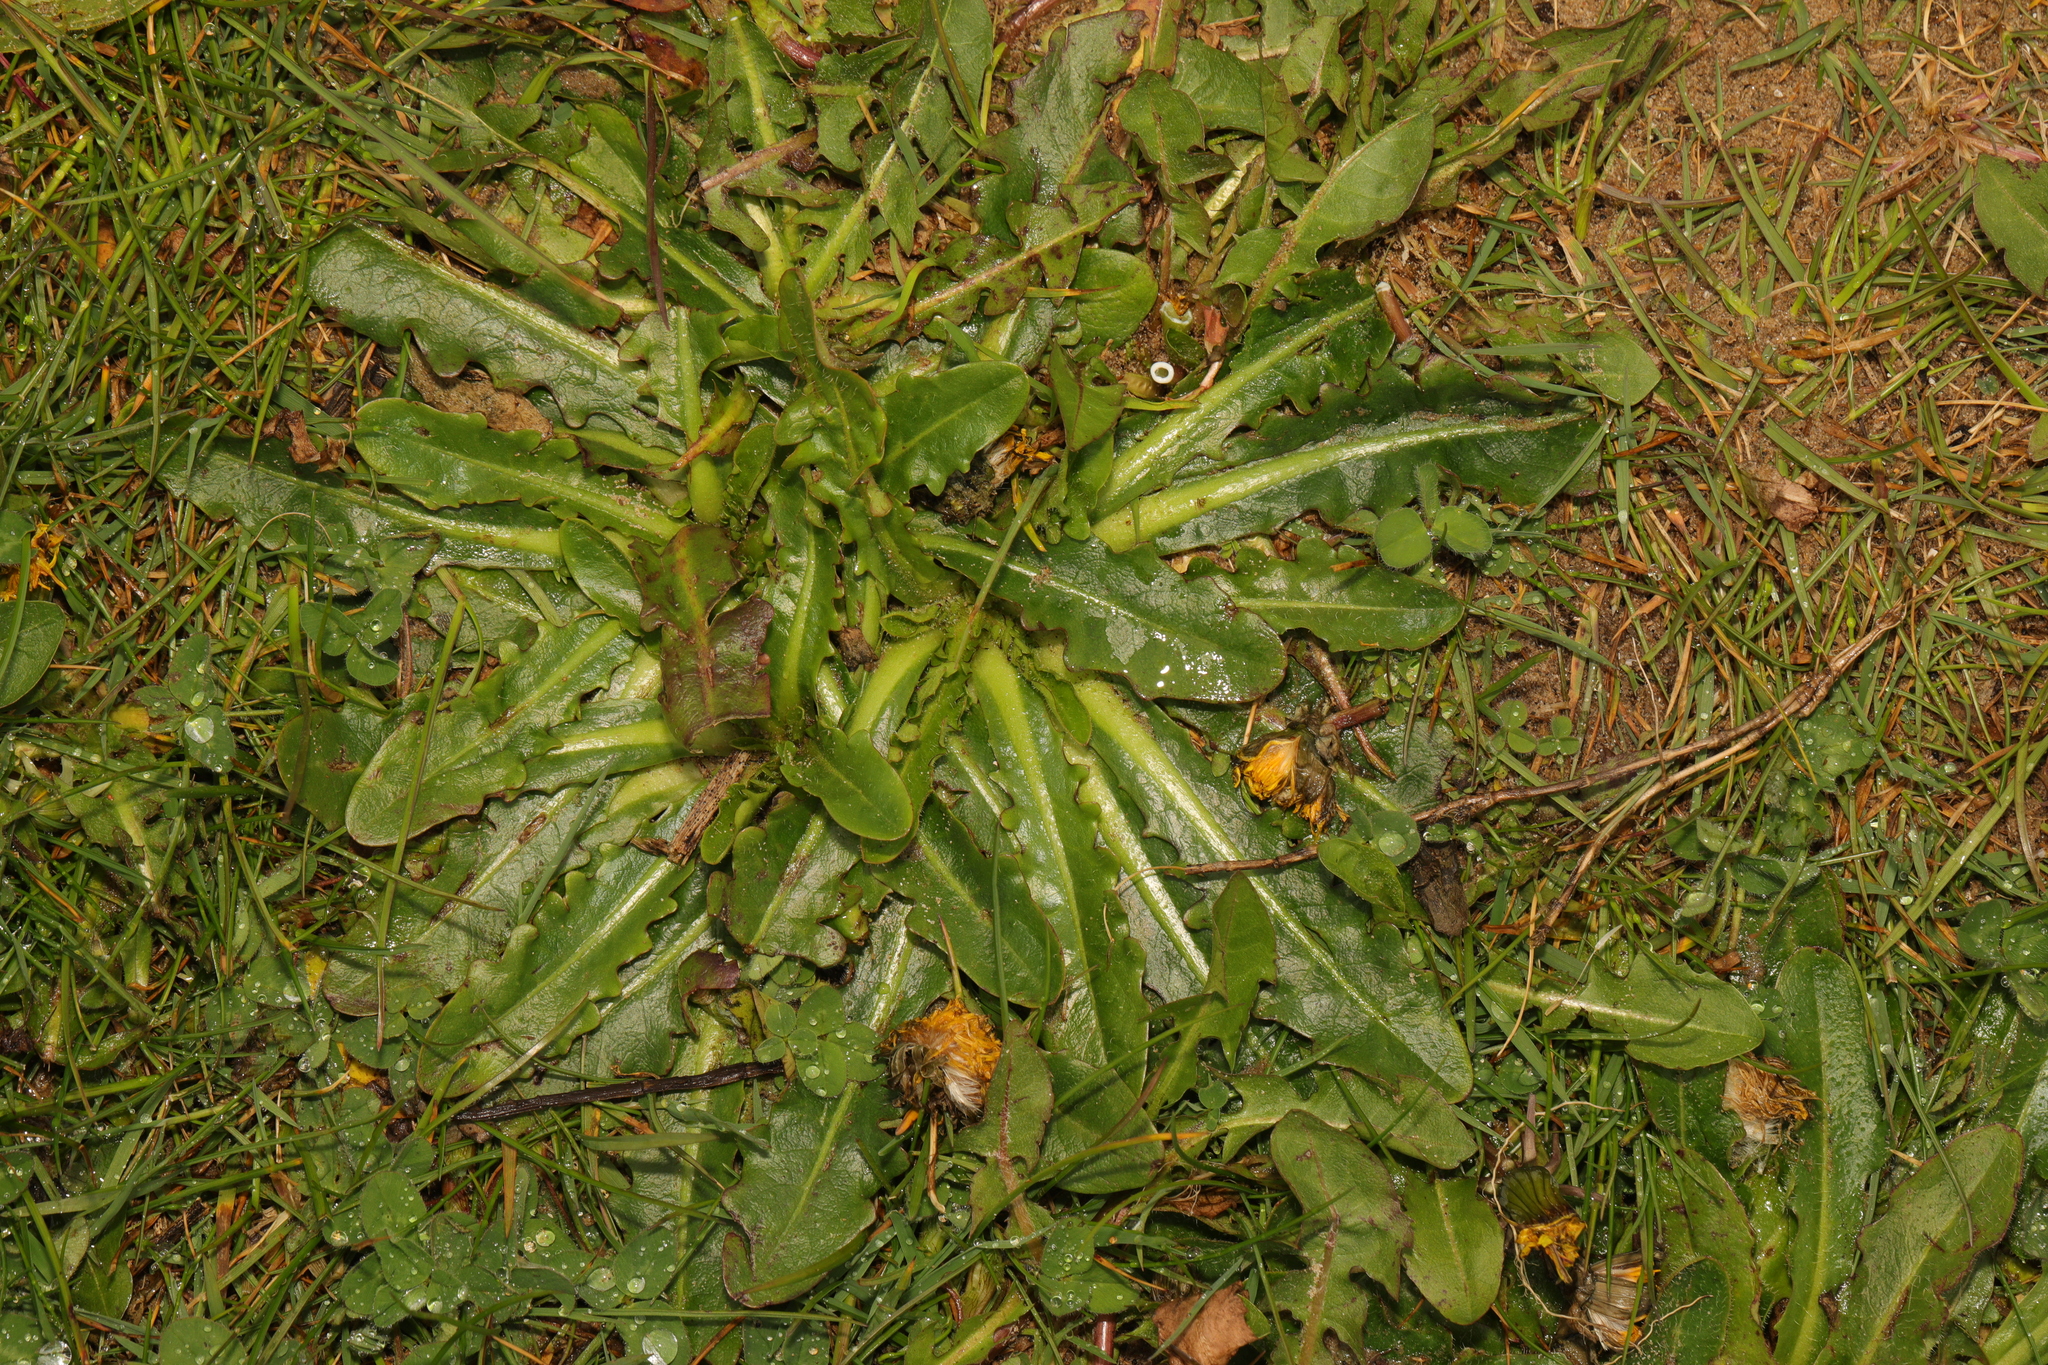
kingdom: Plantae
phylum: Tracheophyta
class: Magnoliopsida
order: Asterales
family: Asteraceae
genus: Hypochaeris
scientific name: Hypochaeris radicata
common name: Flatweed
